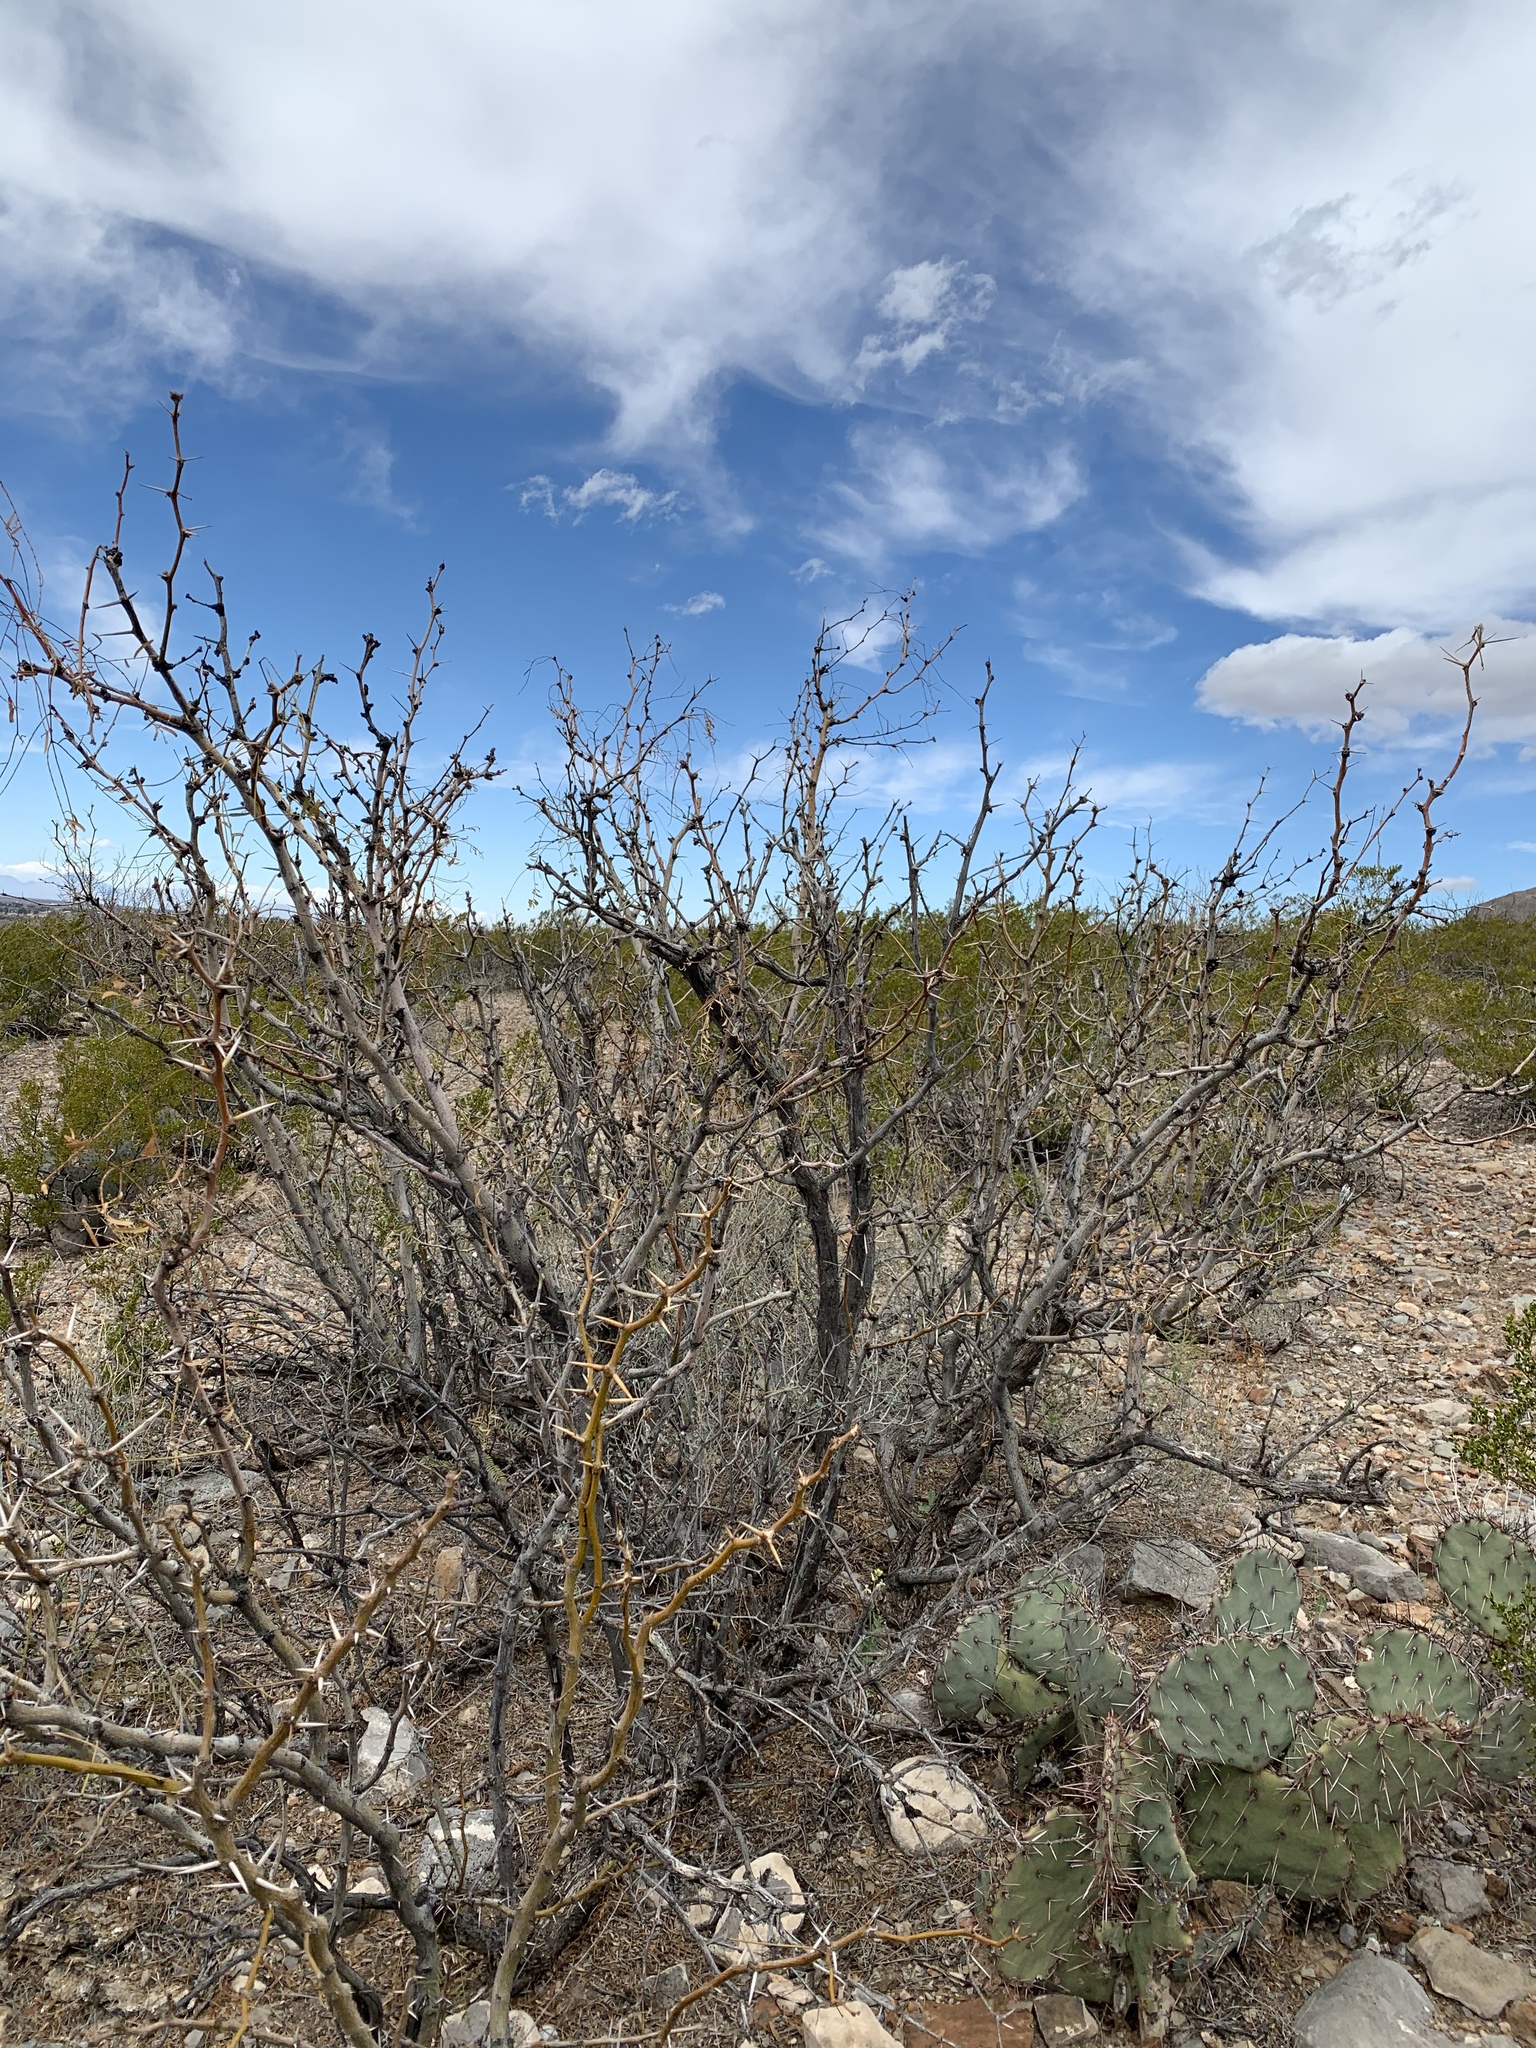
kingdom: Plantae
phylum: Tracheophyta
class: Magnoliopsida
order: Fabales
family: Fabaceae
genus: Prosopis
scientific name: Prosopis glandulosa
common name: Honey mesquite
